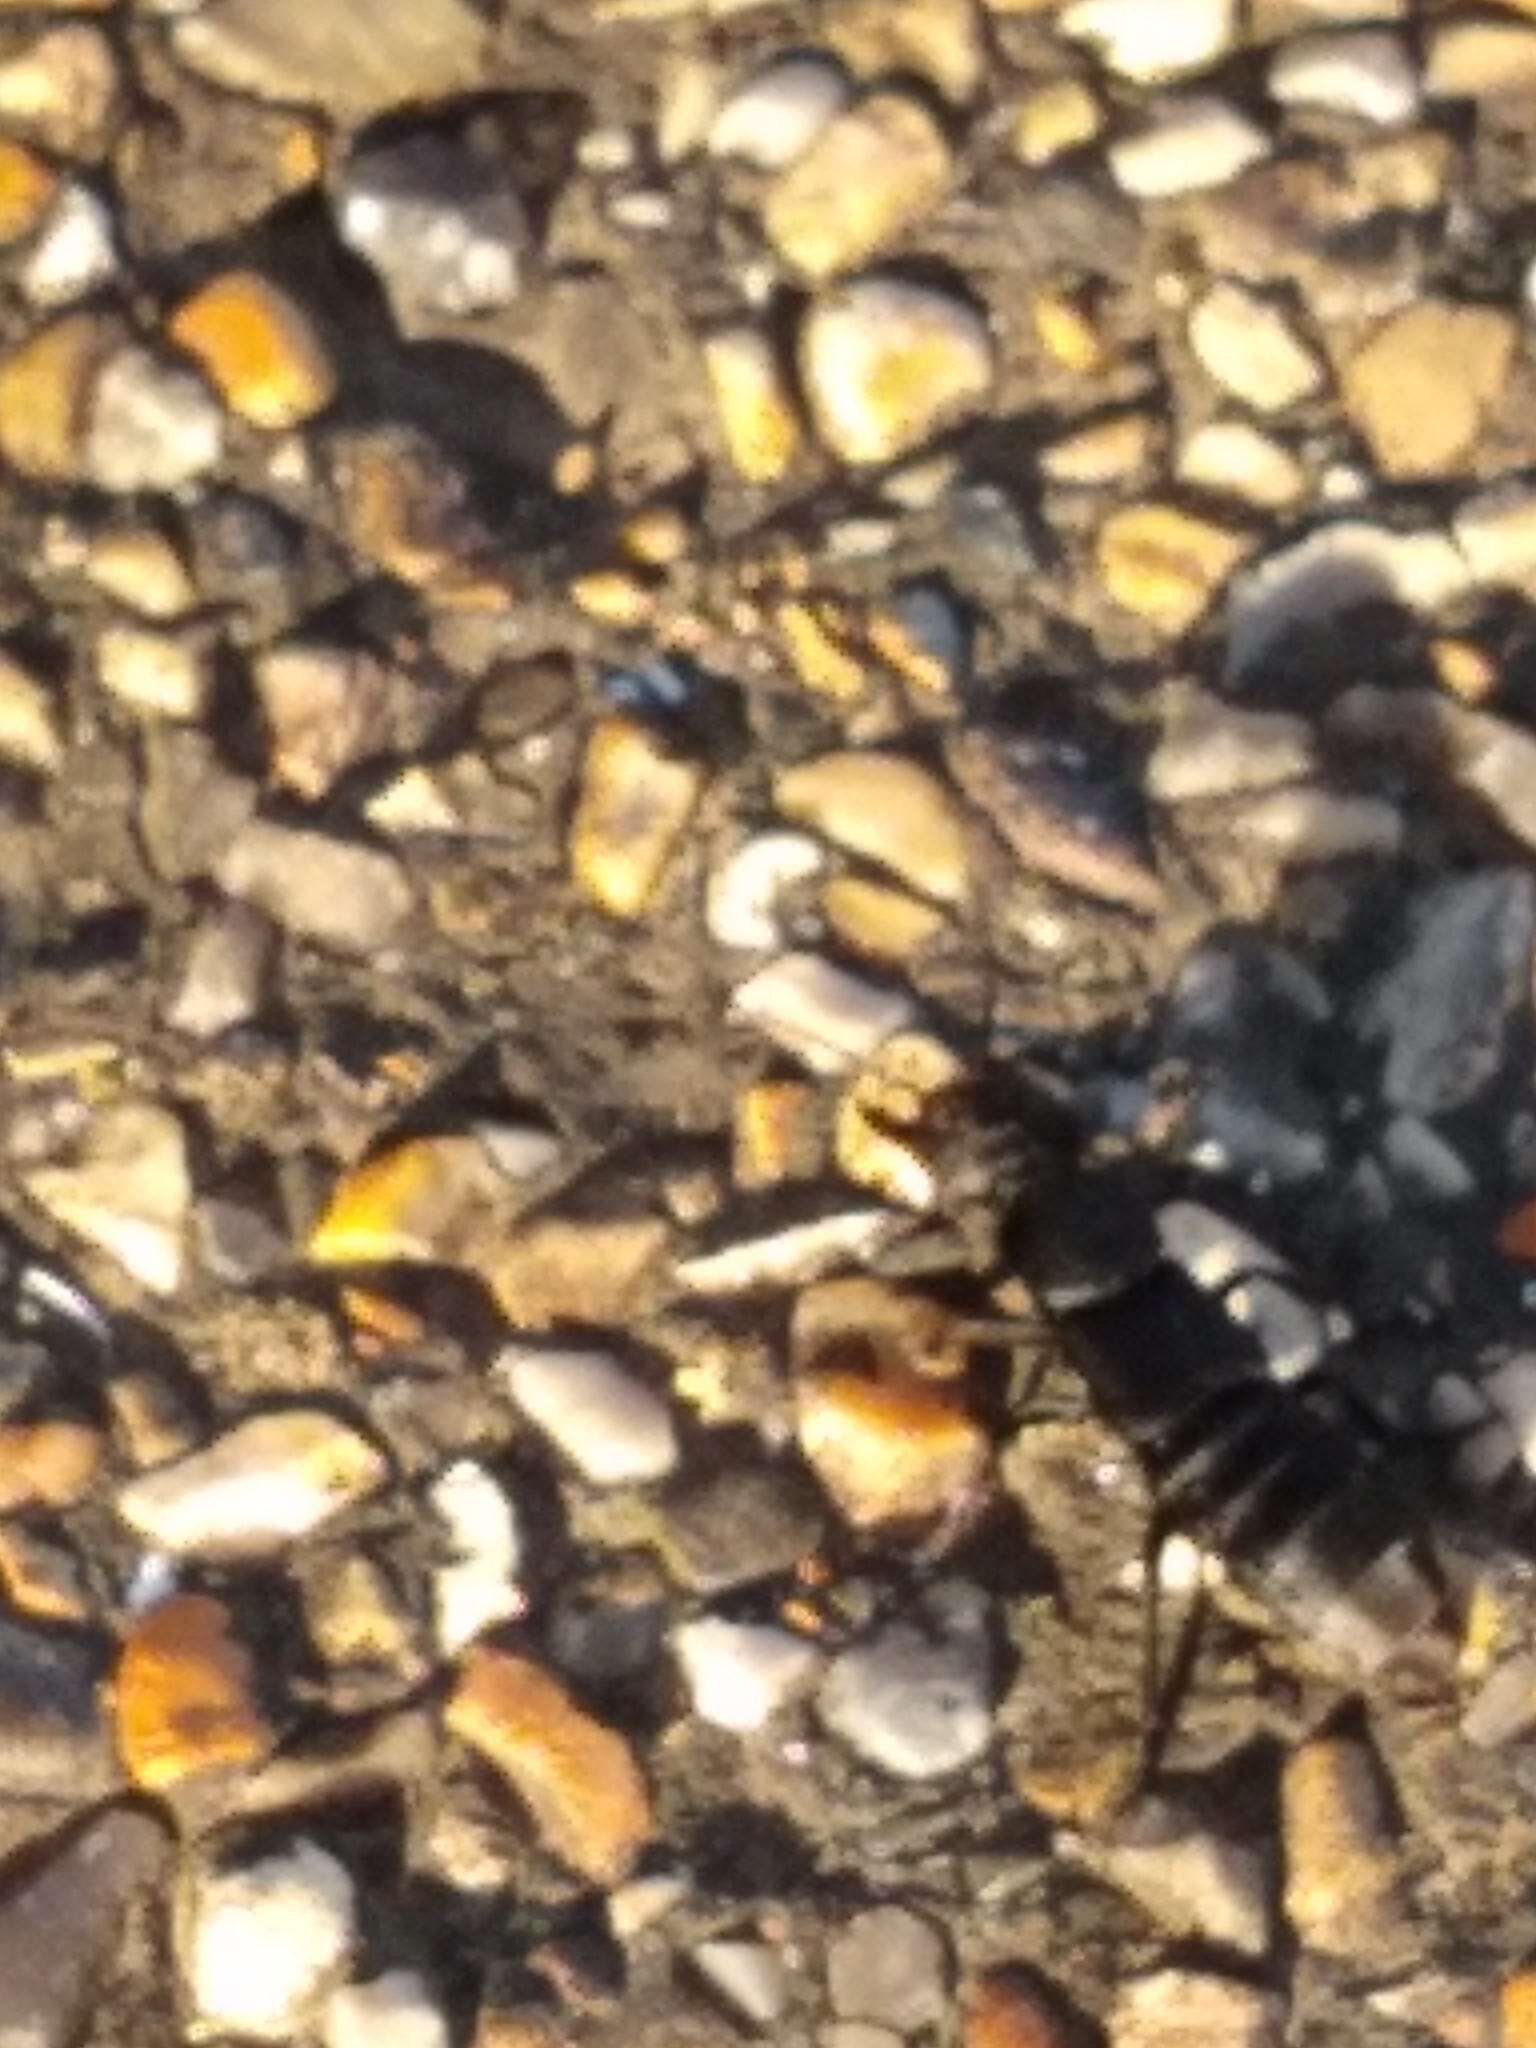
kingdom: Animalia
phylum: Arthropoda
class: Insecta
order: Coleoptera
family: Staphylinidae
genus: Ocypus
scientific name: Ocypus olens
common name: Devil's coach-horse
